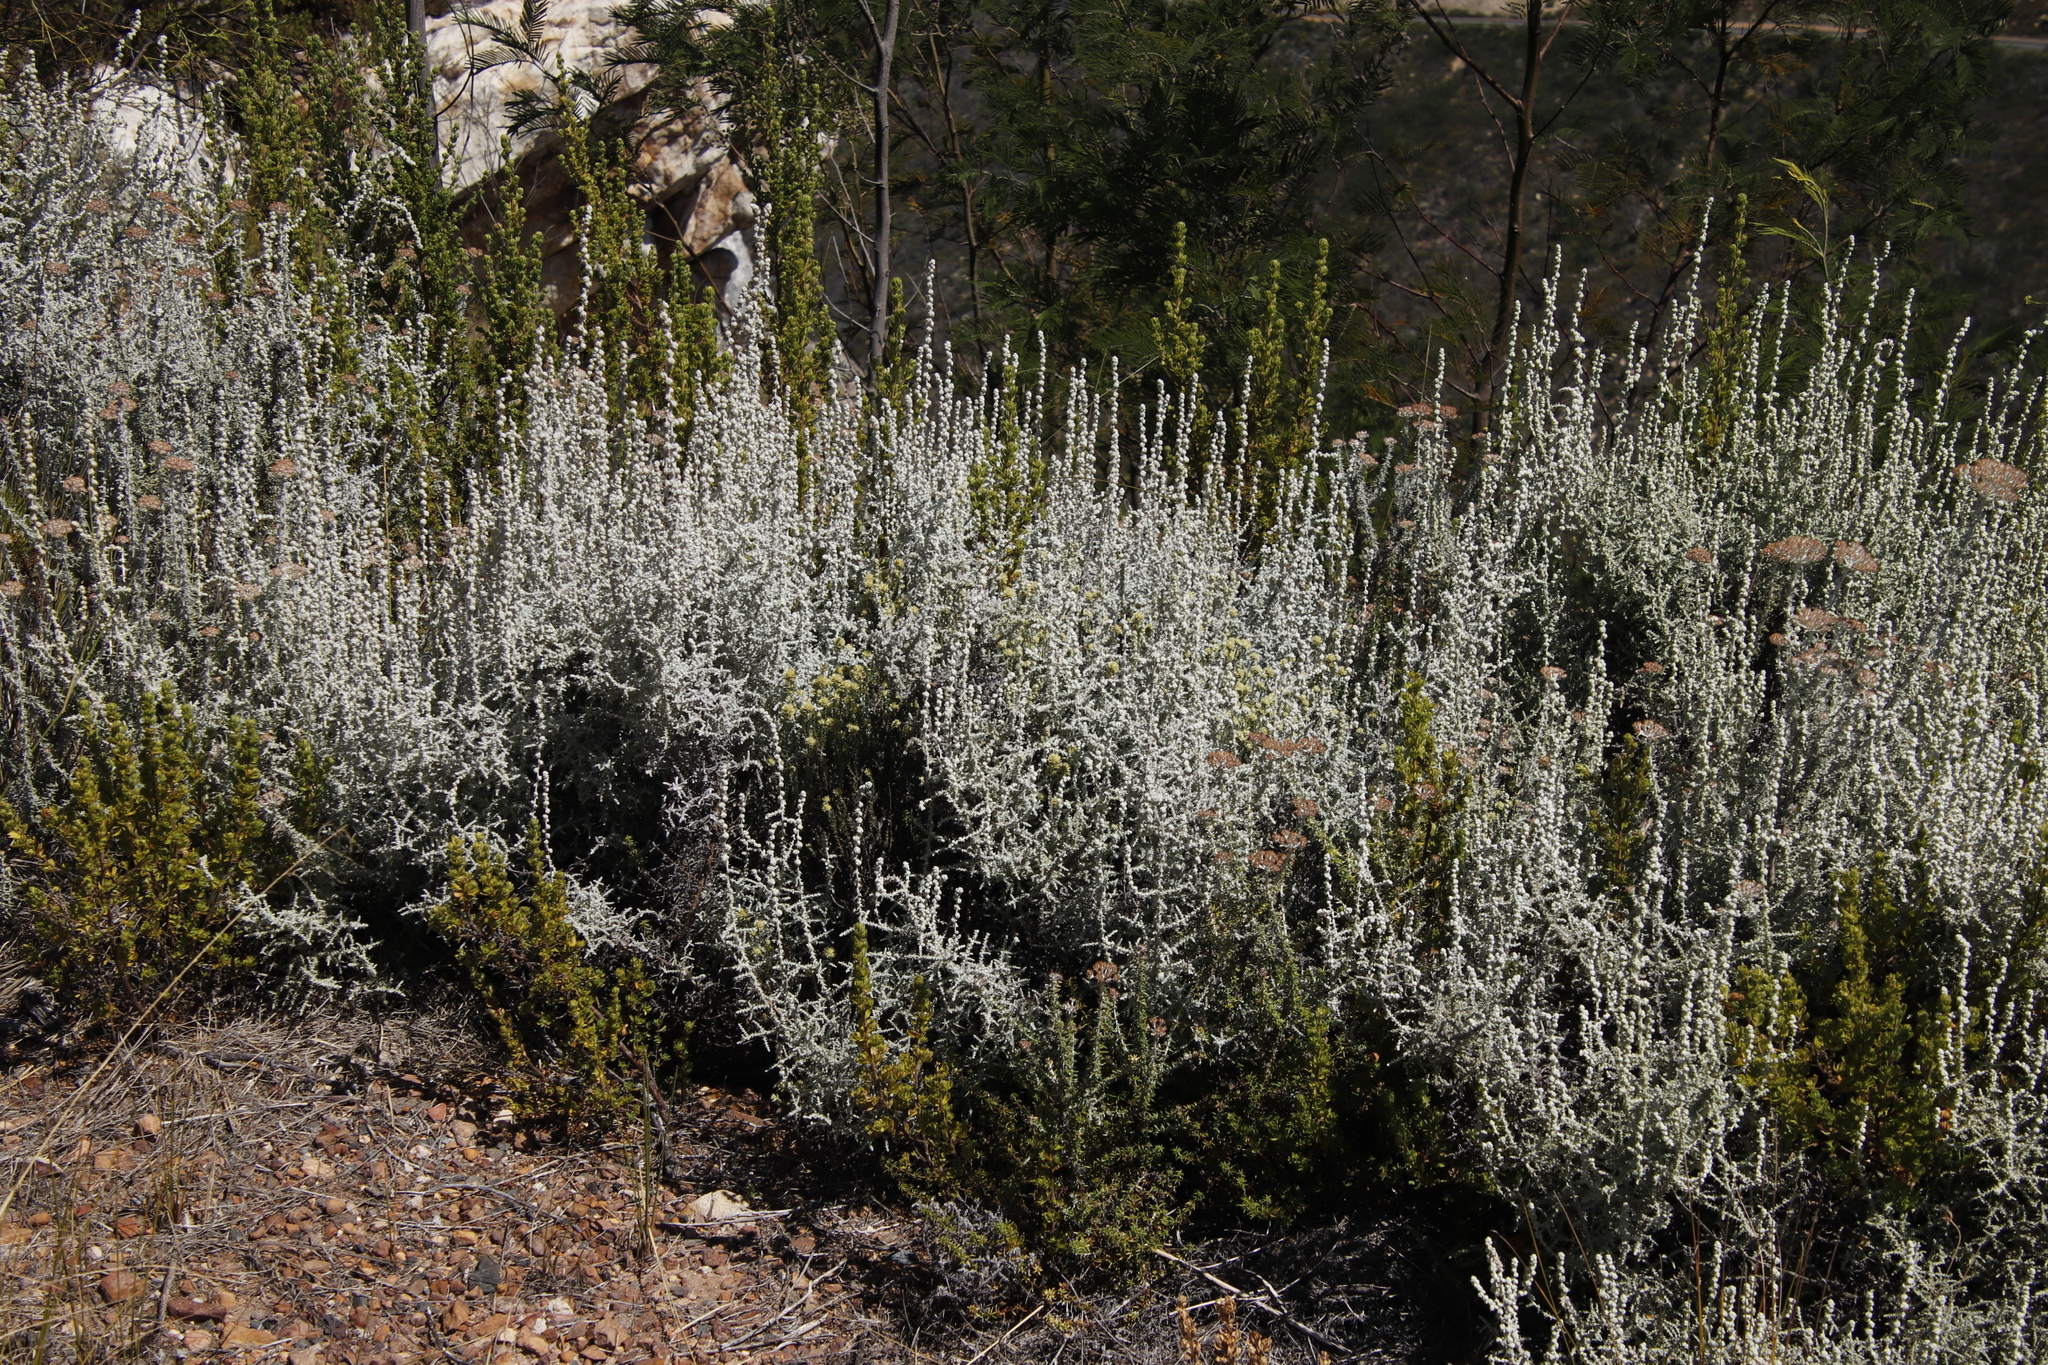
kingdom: Plantae
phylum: Tracheophyta
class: Magnoliopsida
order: Asterales
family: Asteraceae
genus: Seriphium
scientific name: Seriphium plumosum
